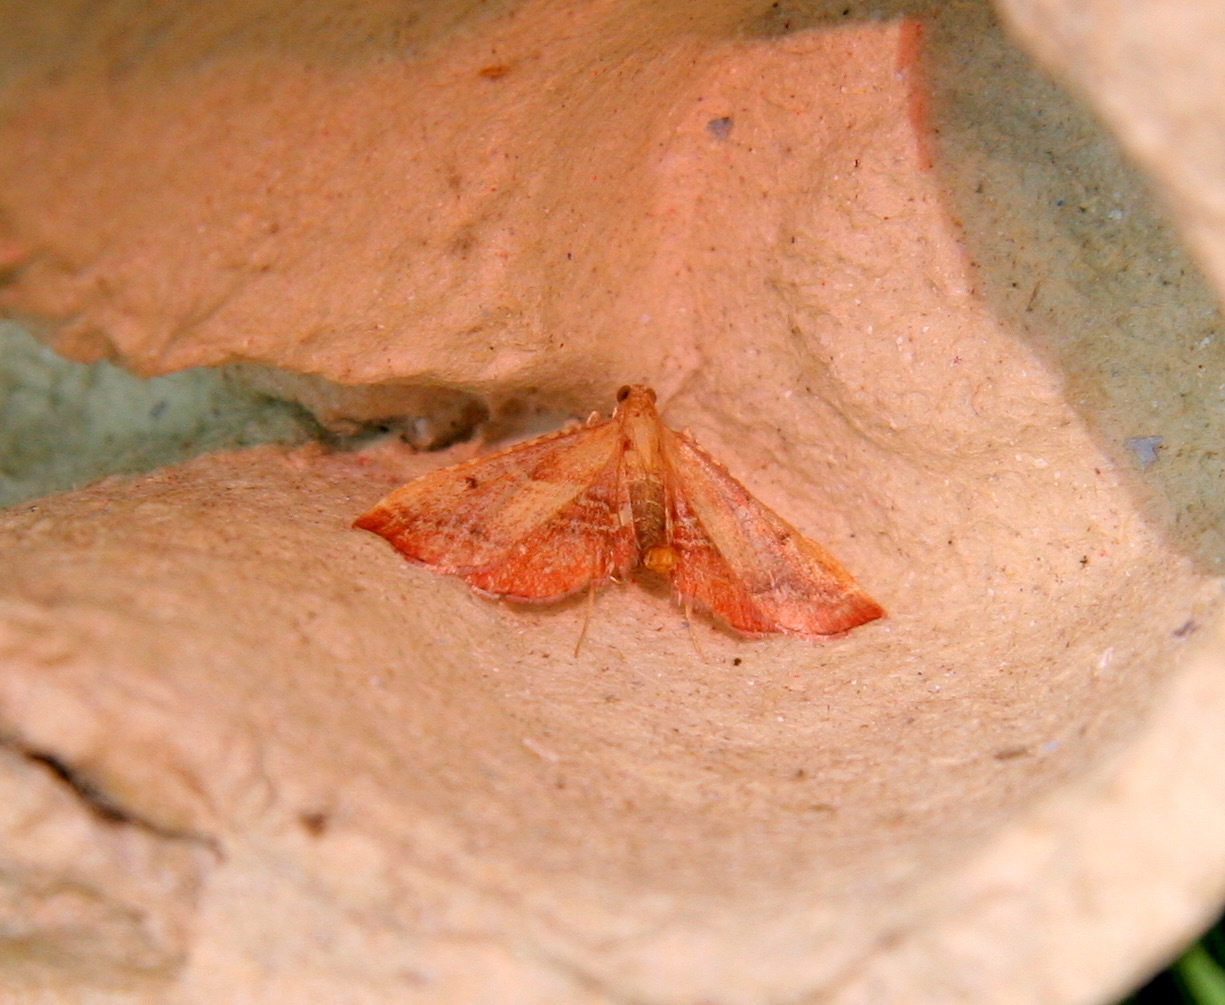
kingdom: Animalia
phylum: Arthropoda
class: Insecta
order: Lepidoptera
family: Pyralidae
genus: Endotricha
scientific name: Endotricha flammealis
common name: Rosy tabby
